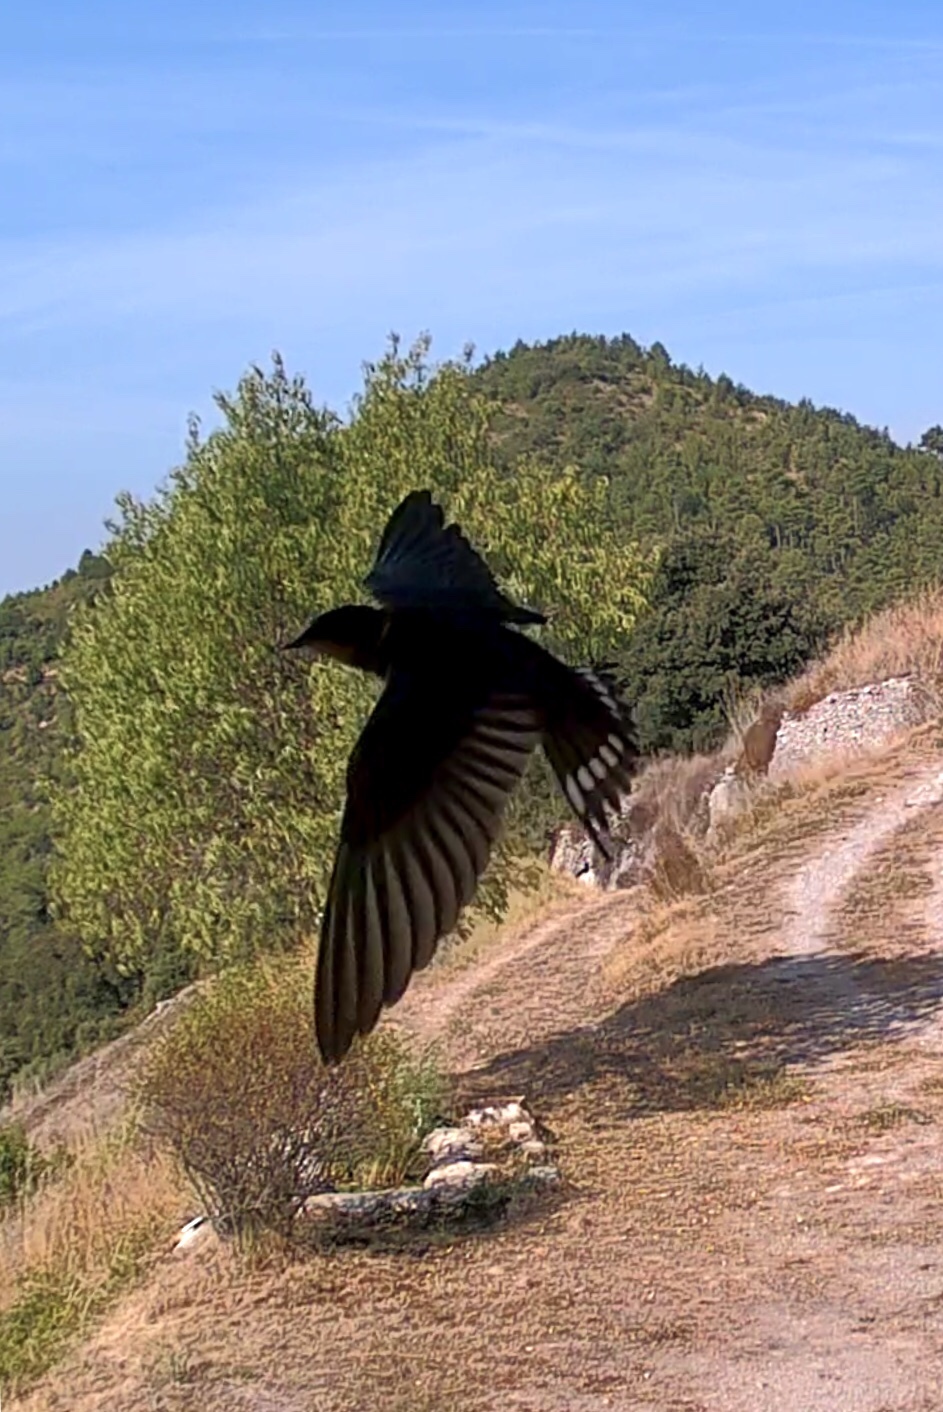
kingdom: Animalia
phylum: Chordata
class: Aves
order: Passeriformes
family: Hirundinidae
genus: Hirundo
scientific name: Hirundo rustica
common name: Barn swallow
